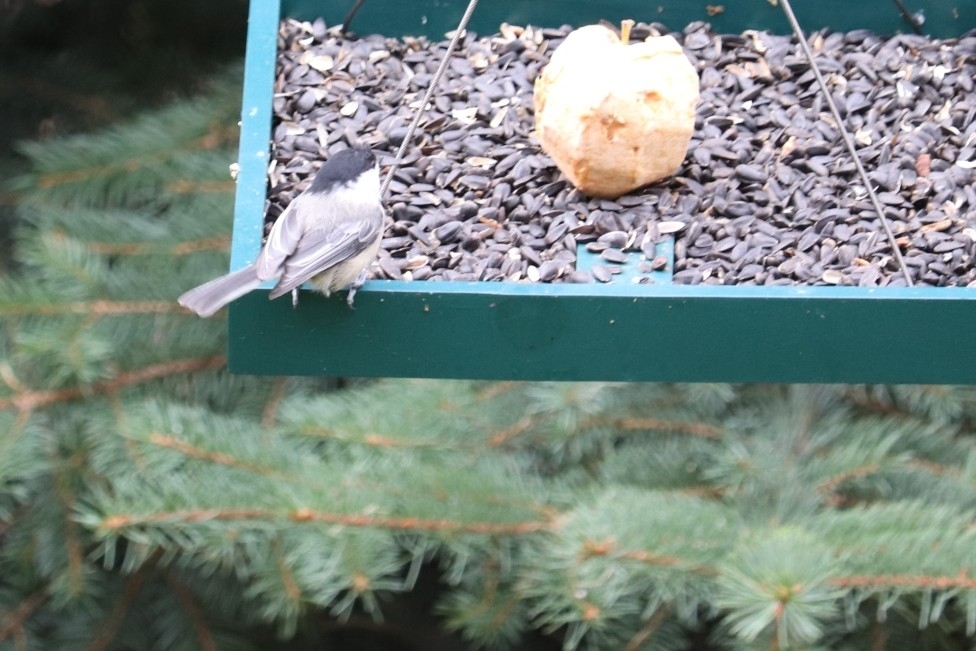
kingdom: Animalia
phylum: Chordata
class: Aves
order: Passeriformes
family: Paridae
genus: Poecile
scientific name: Poecile atricapillus
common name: Black-capped chickadee
